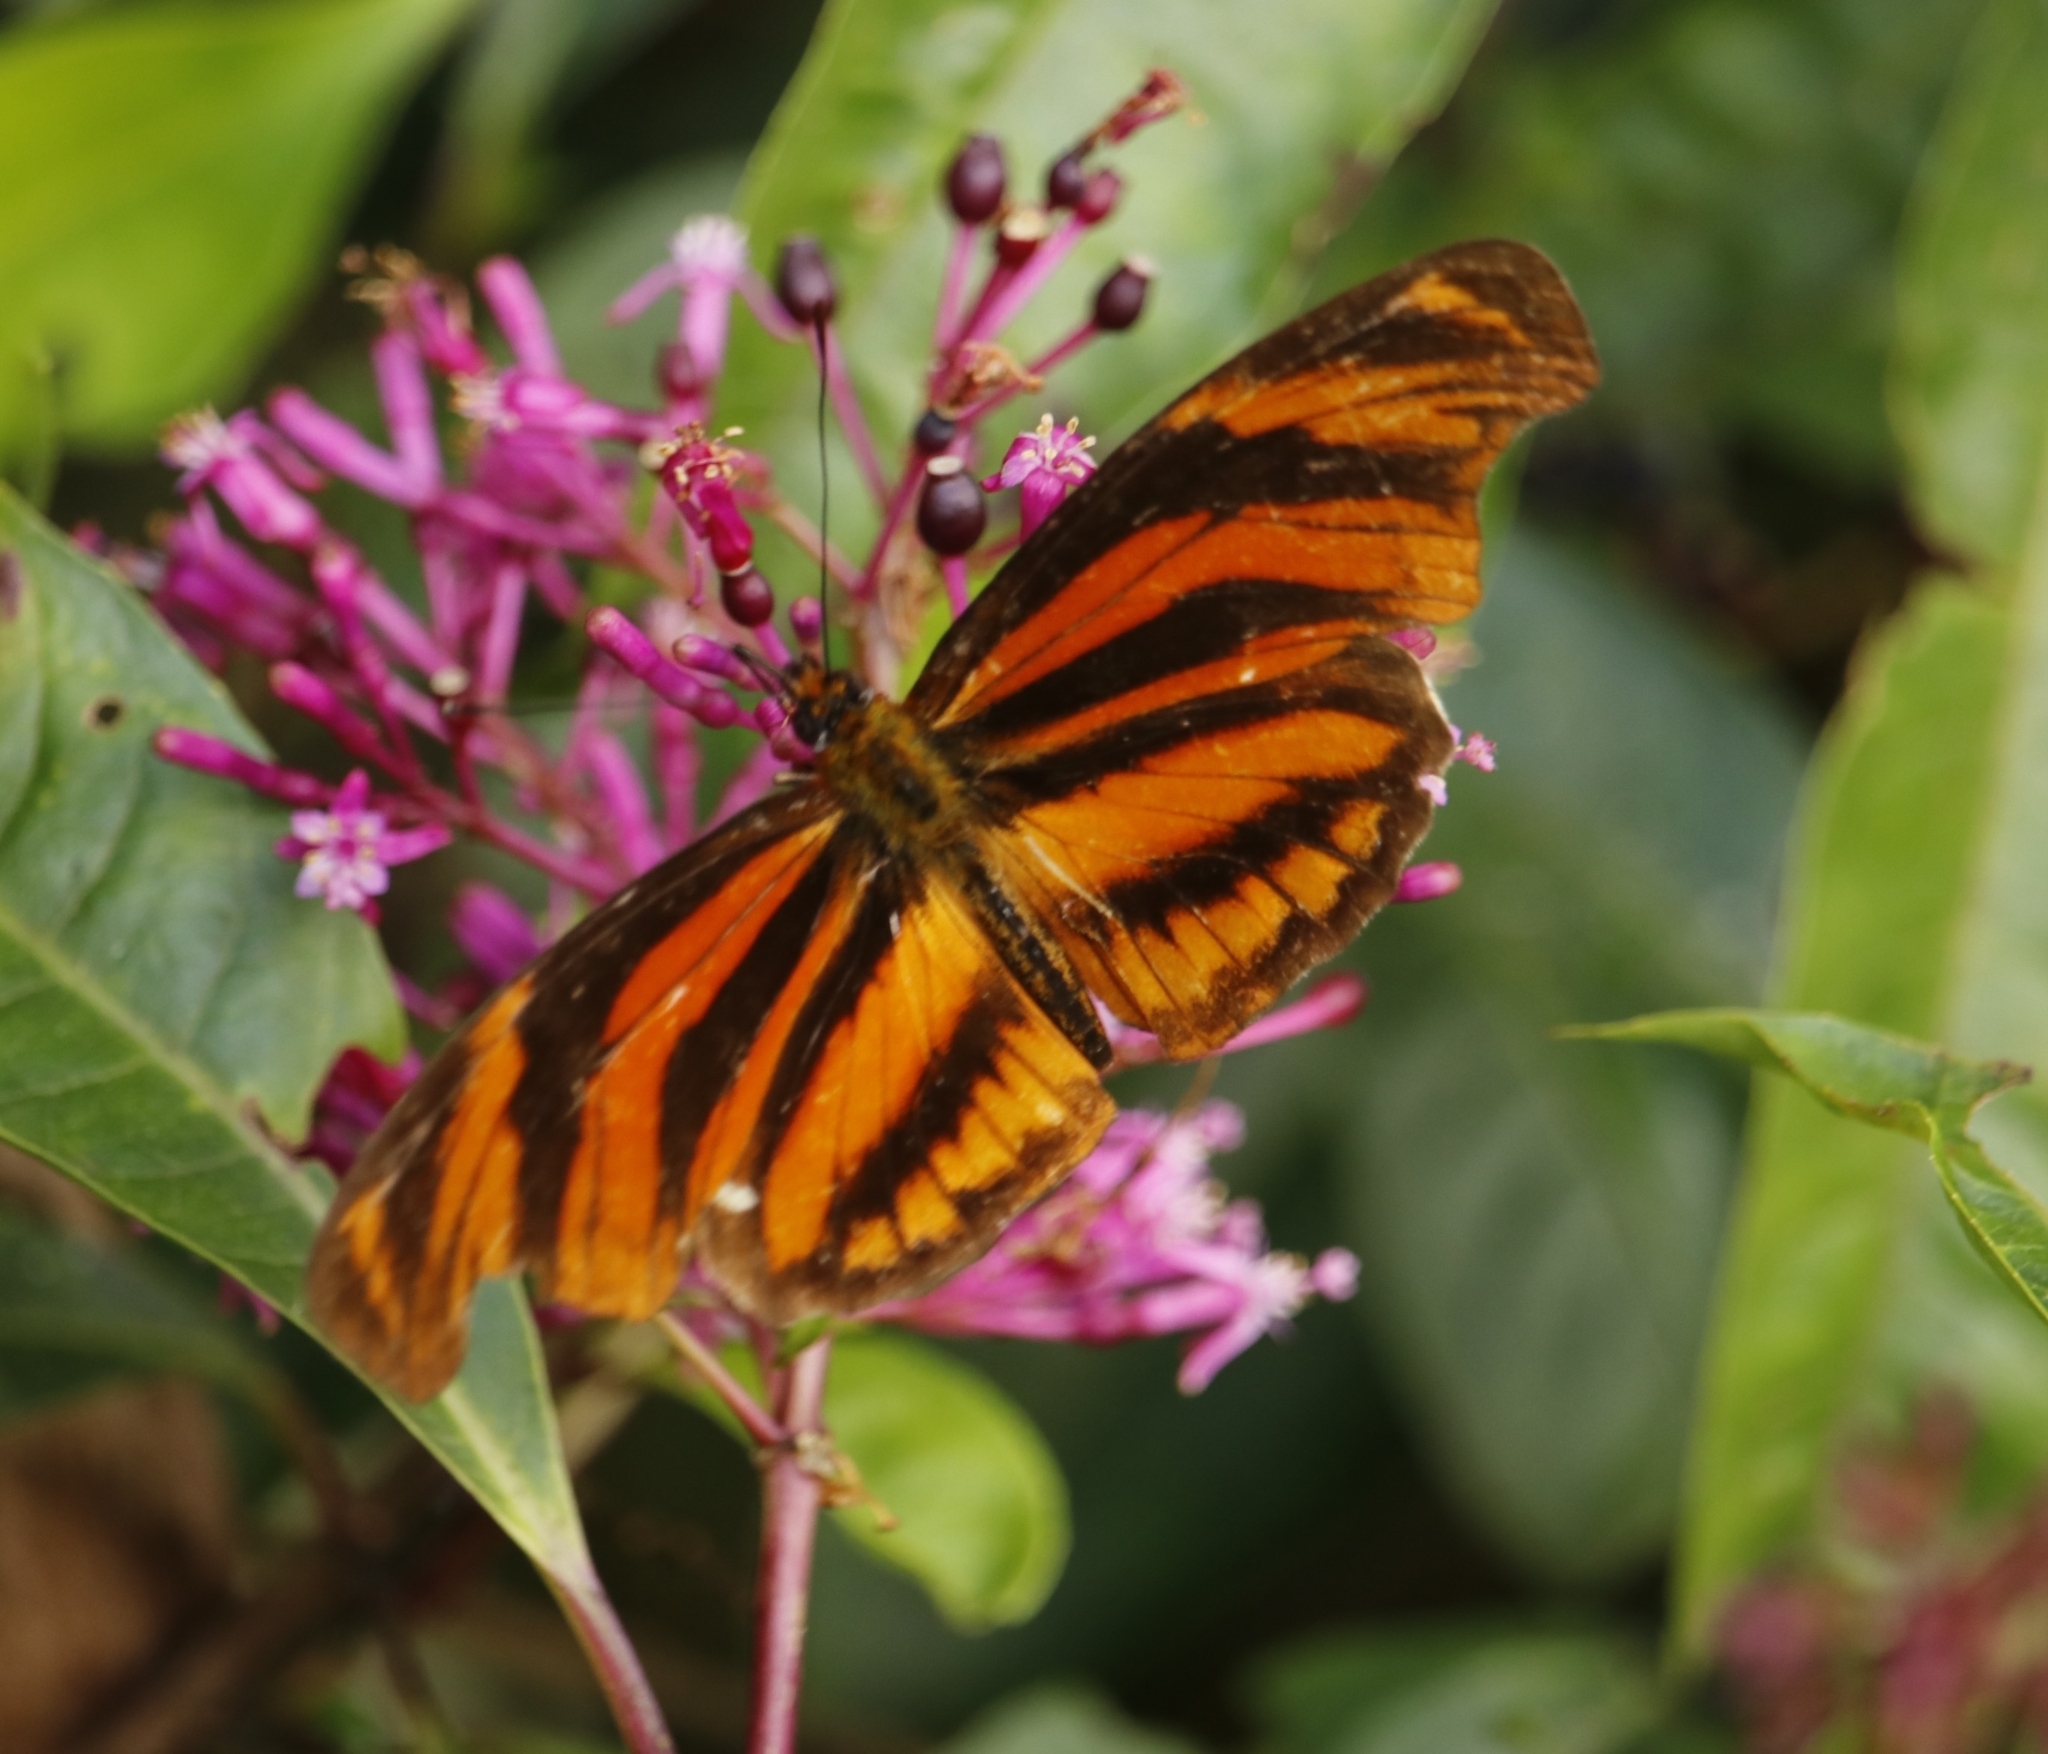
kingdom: Animalia
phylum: Arthropoda
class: Insecta
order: Lepidoptera
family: Nymphalidae
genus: Podotricha
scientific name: Podotricha judith
